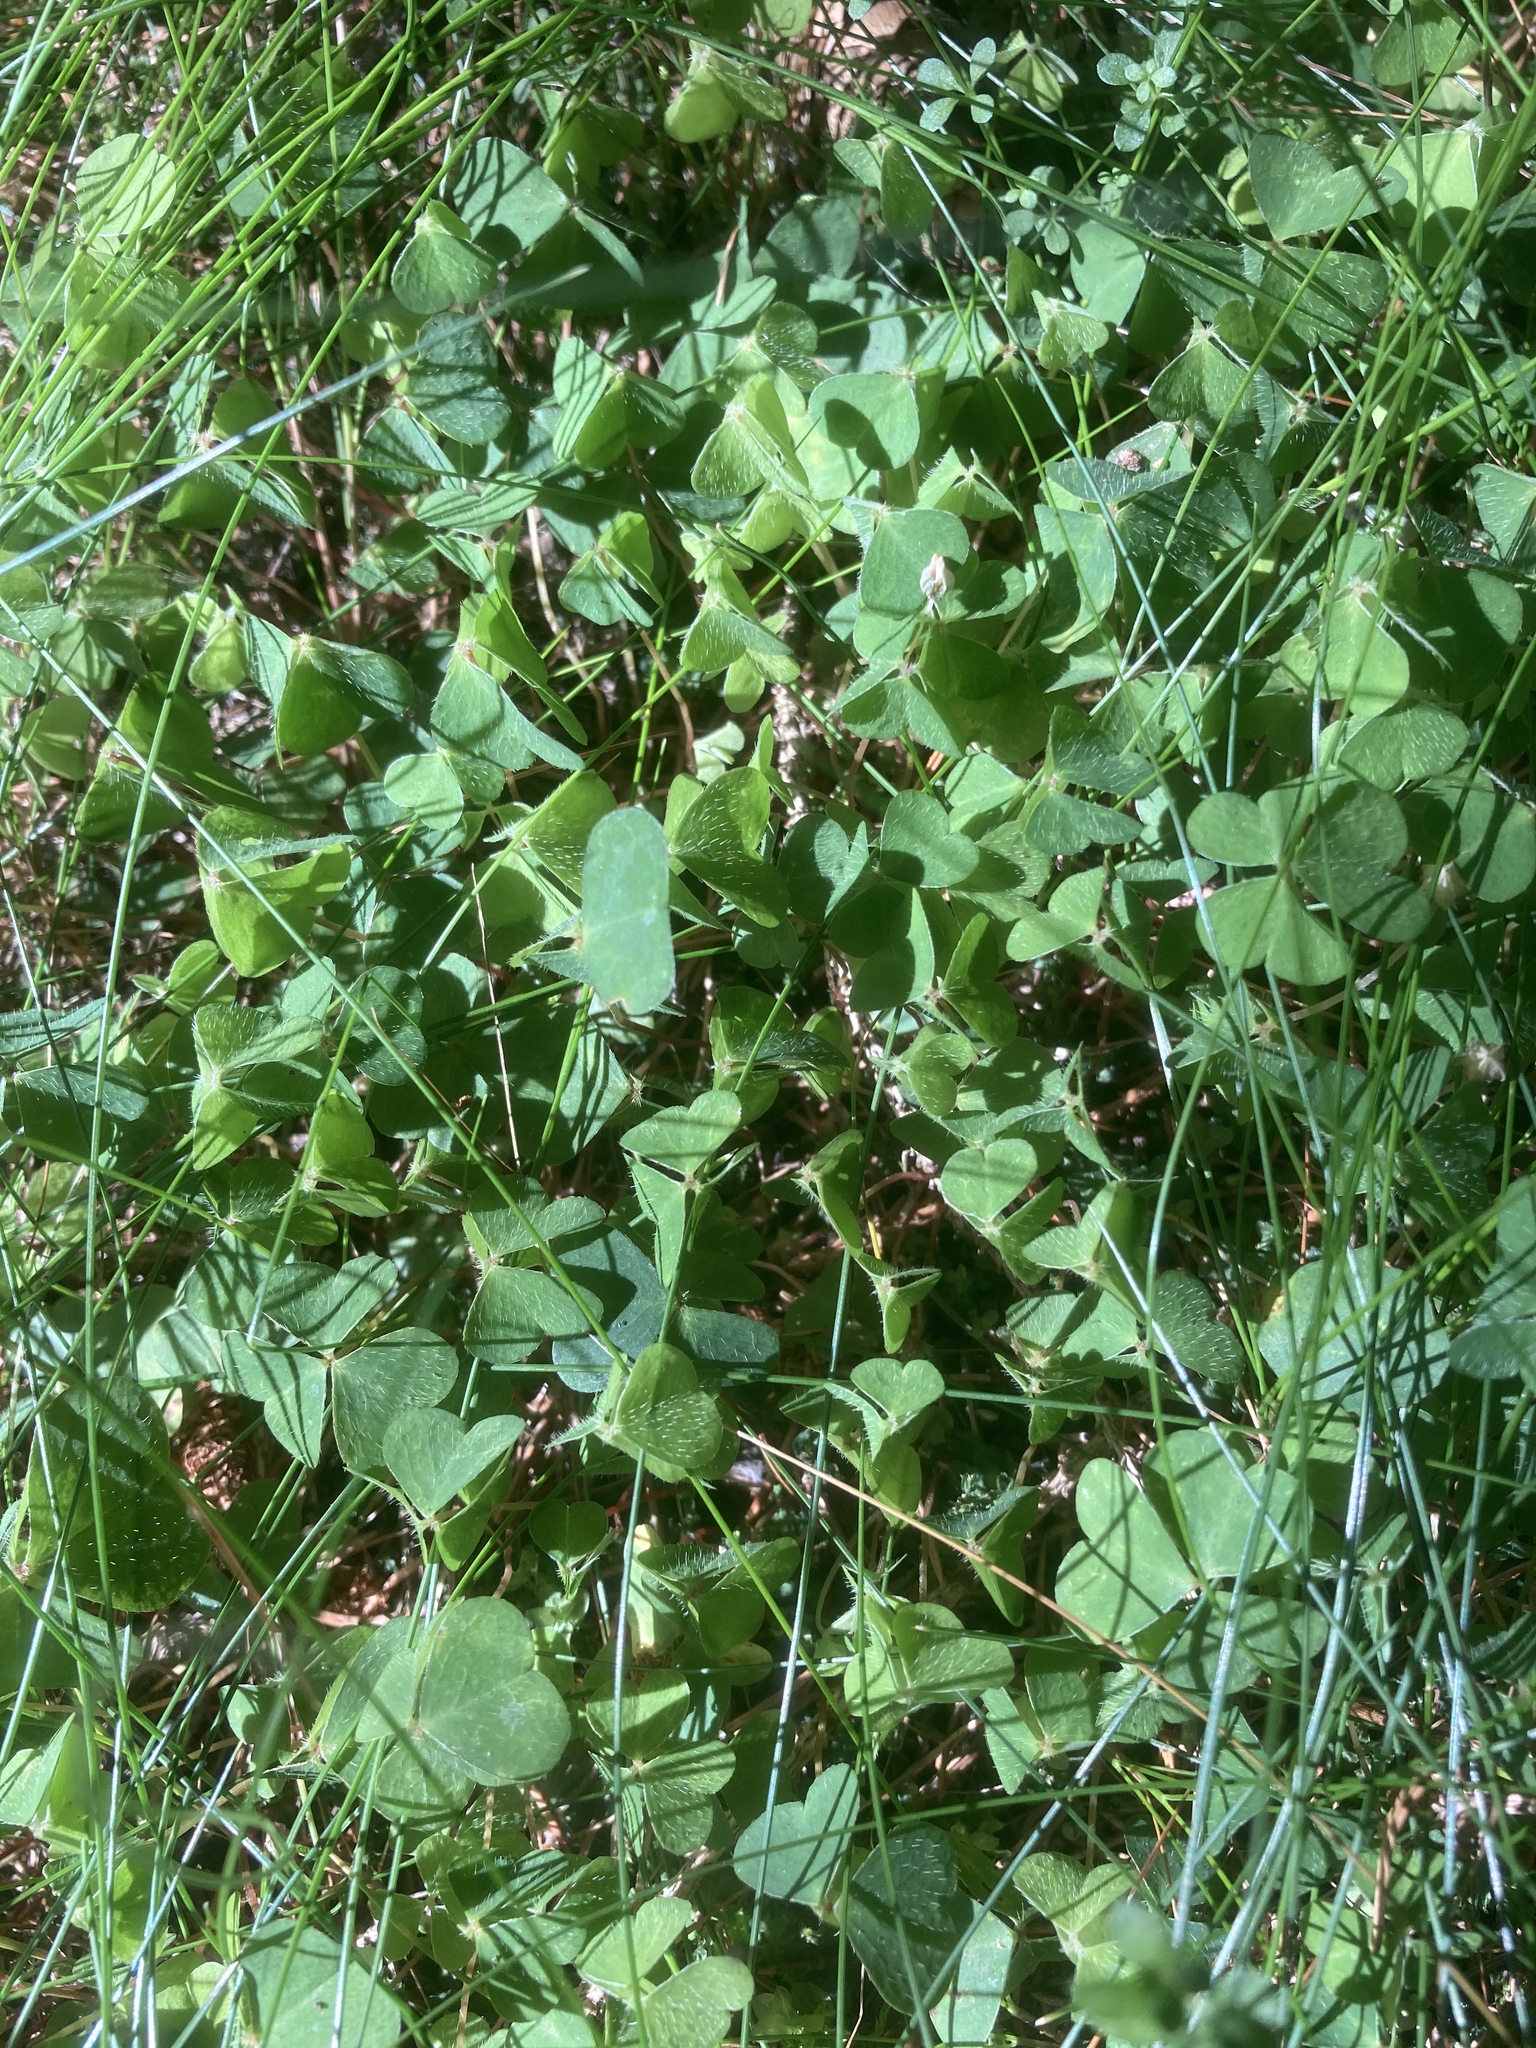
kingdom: Plantae
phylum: Tracheophyta
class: Magnoliopsida
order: Oxalidales
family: Oxalidaceae
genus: Oxalis
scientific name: Oxalis acetosella
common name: Wood-sorrel
